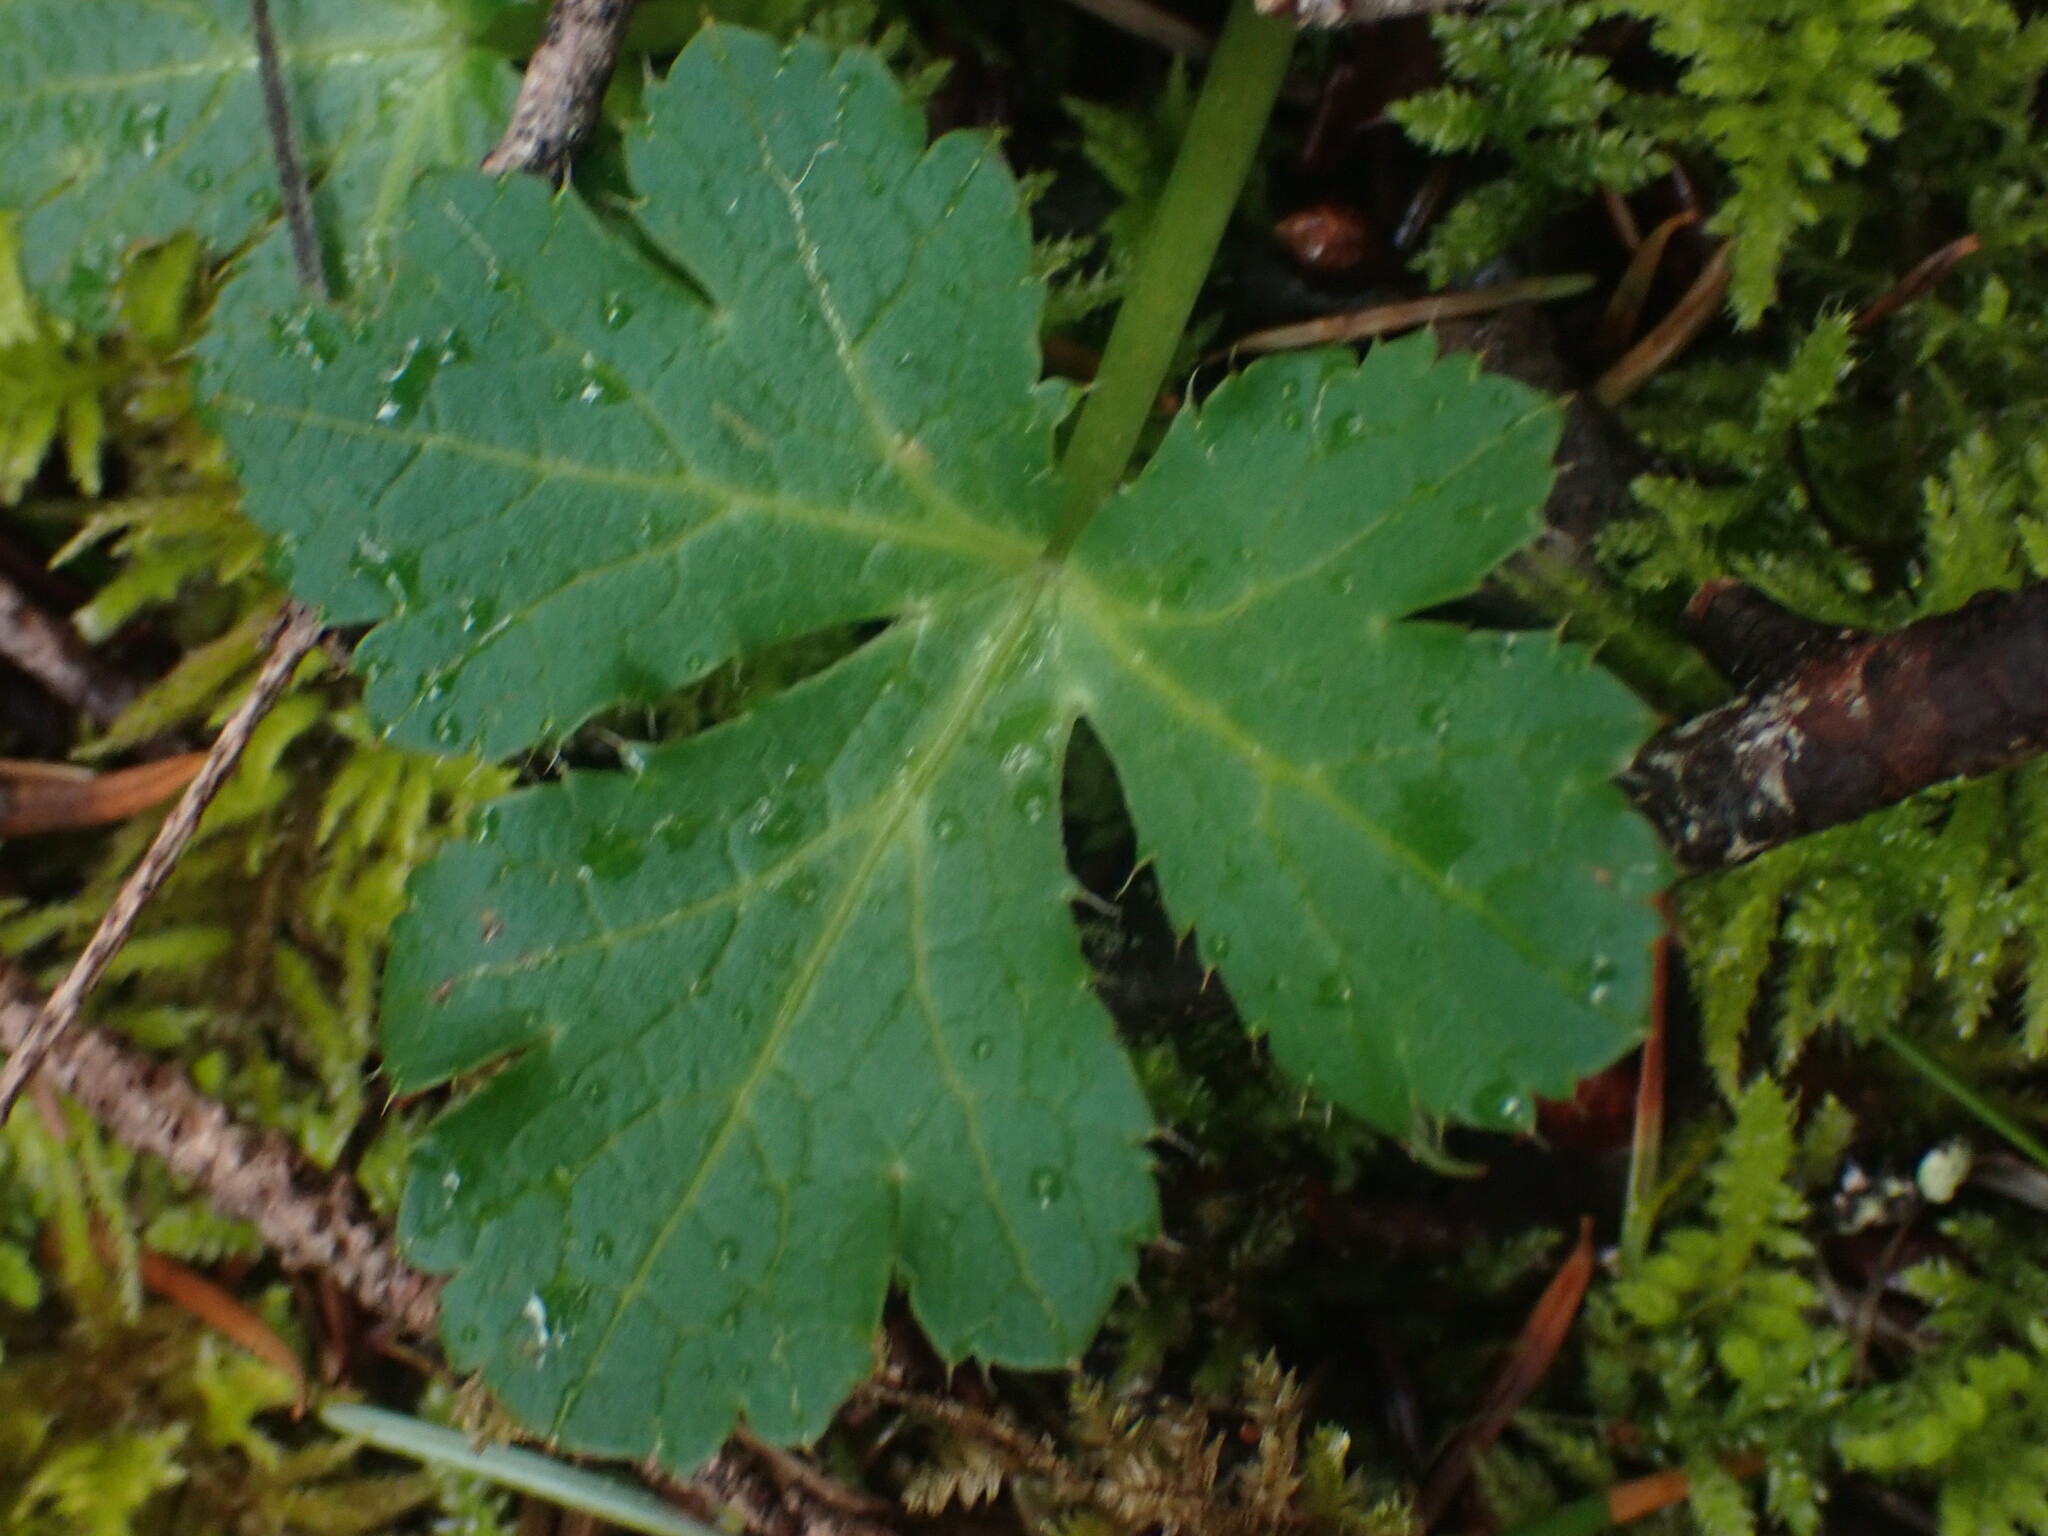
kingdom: Plantae
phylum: Tracheophyta
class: Magnoliopsida
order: Apiales
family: Apiaceae
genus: Sanicula
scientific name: Sanicula crassicaulis
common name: Western snakeroot
